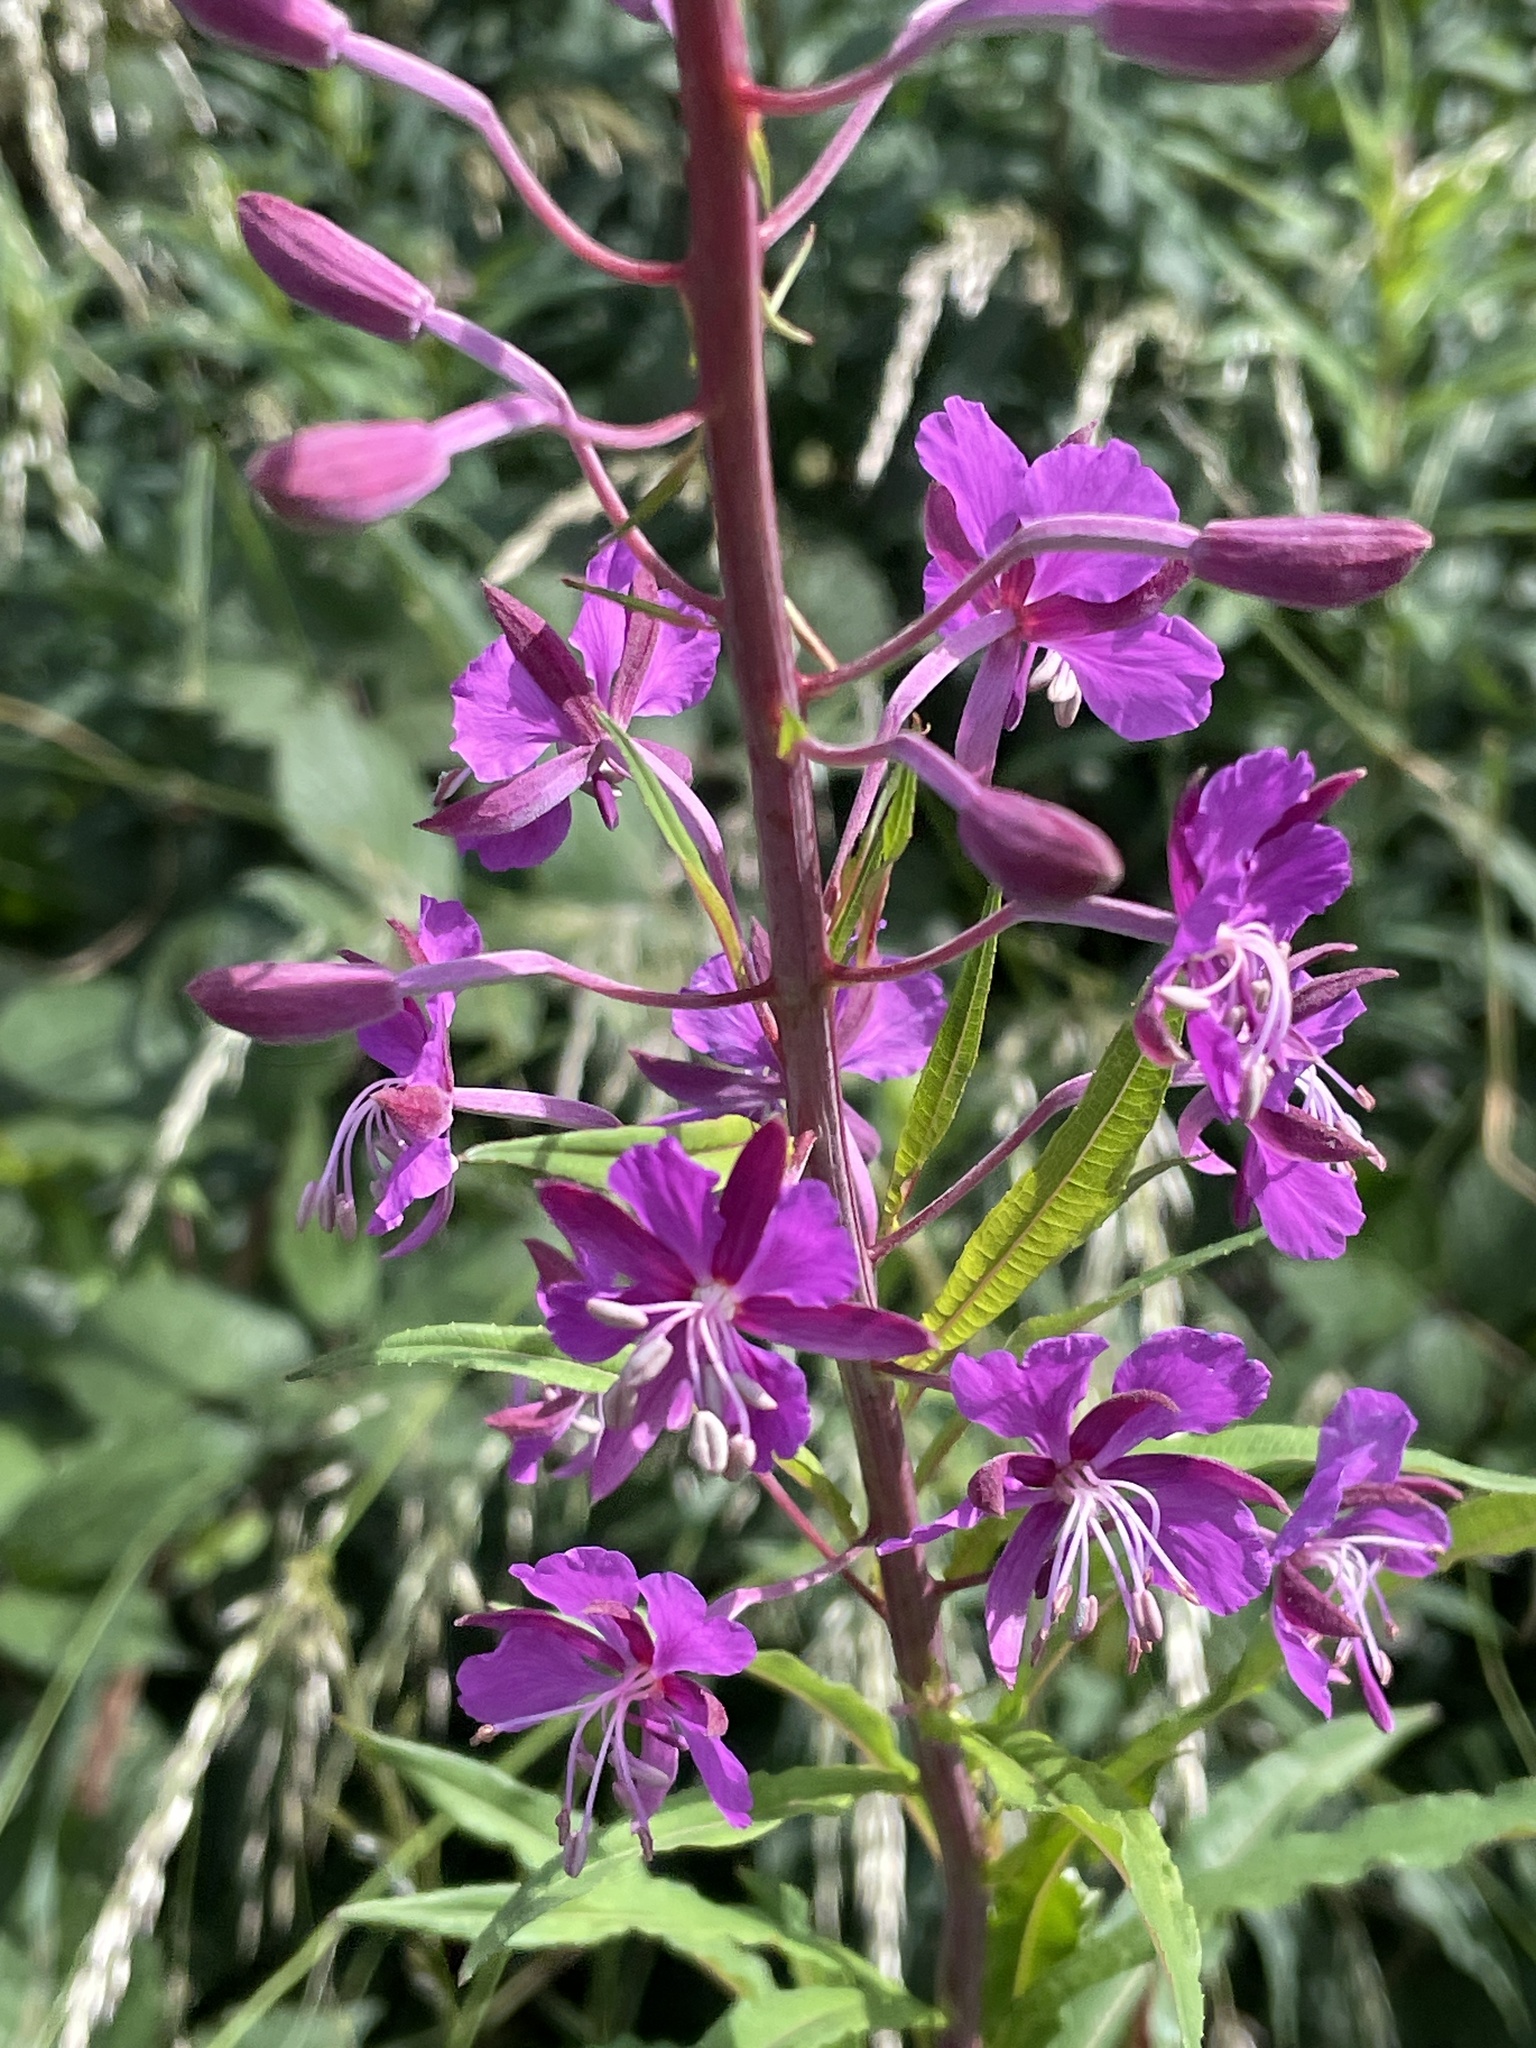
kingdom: Plantae
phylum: Tracheophyta
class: Magnoliopsida
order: Myrtales
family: Onagraceae
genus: Chamaenerion
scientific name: Chamaenerion angustifolium
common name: Fireweed
